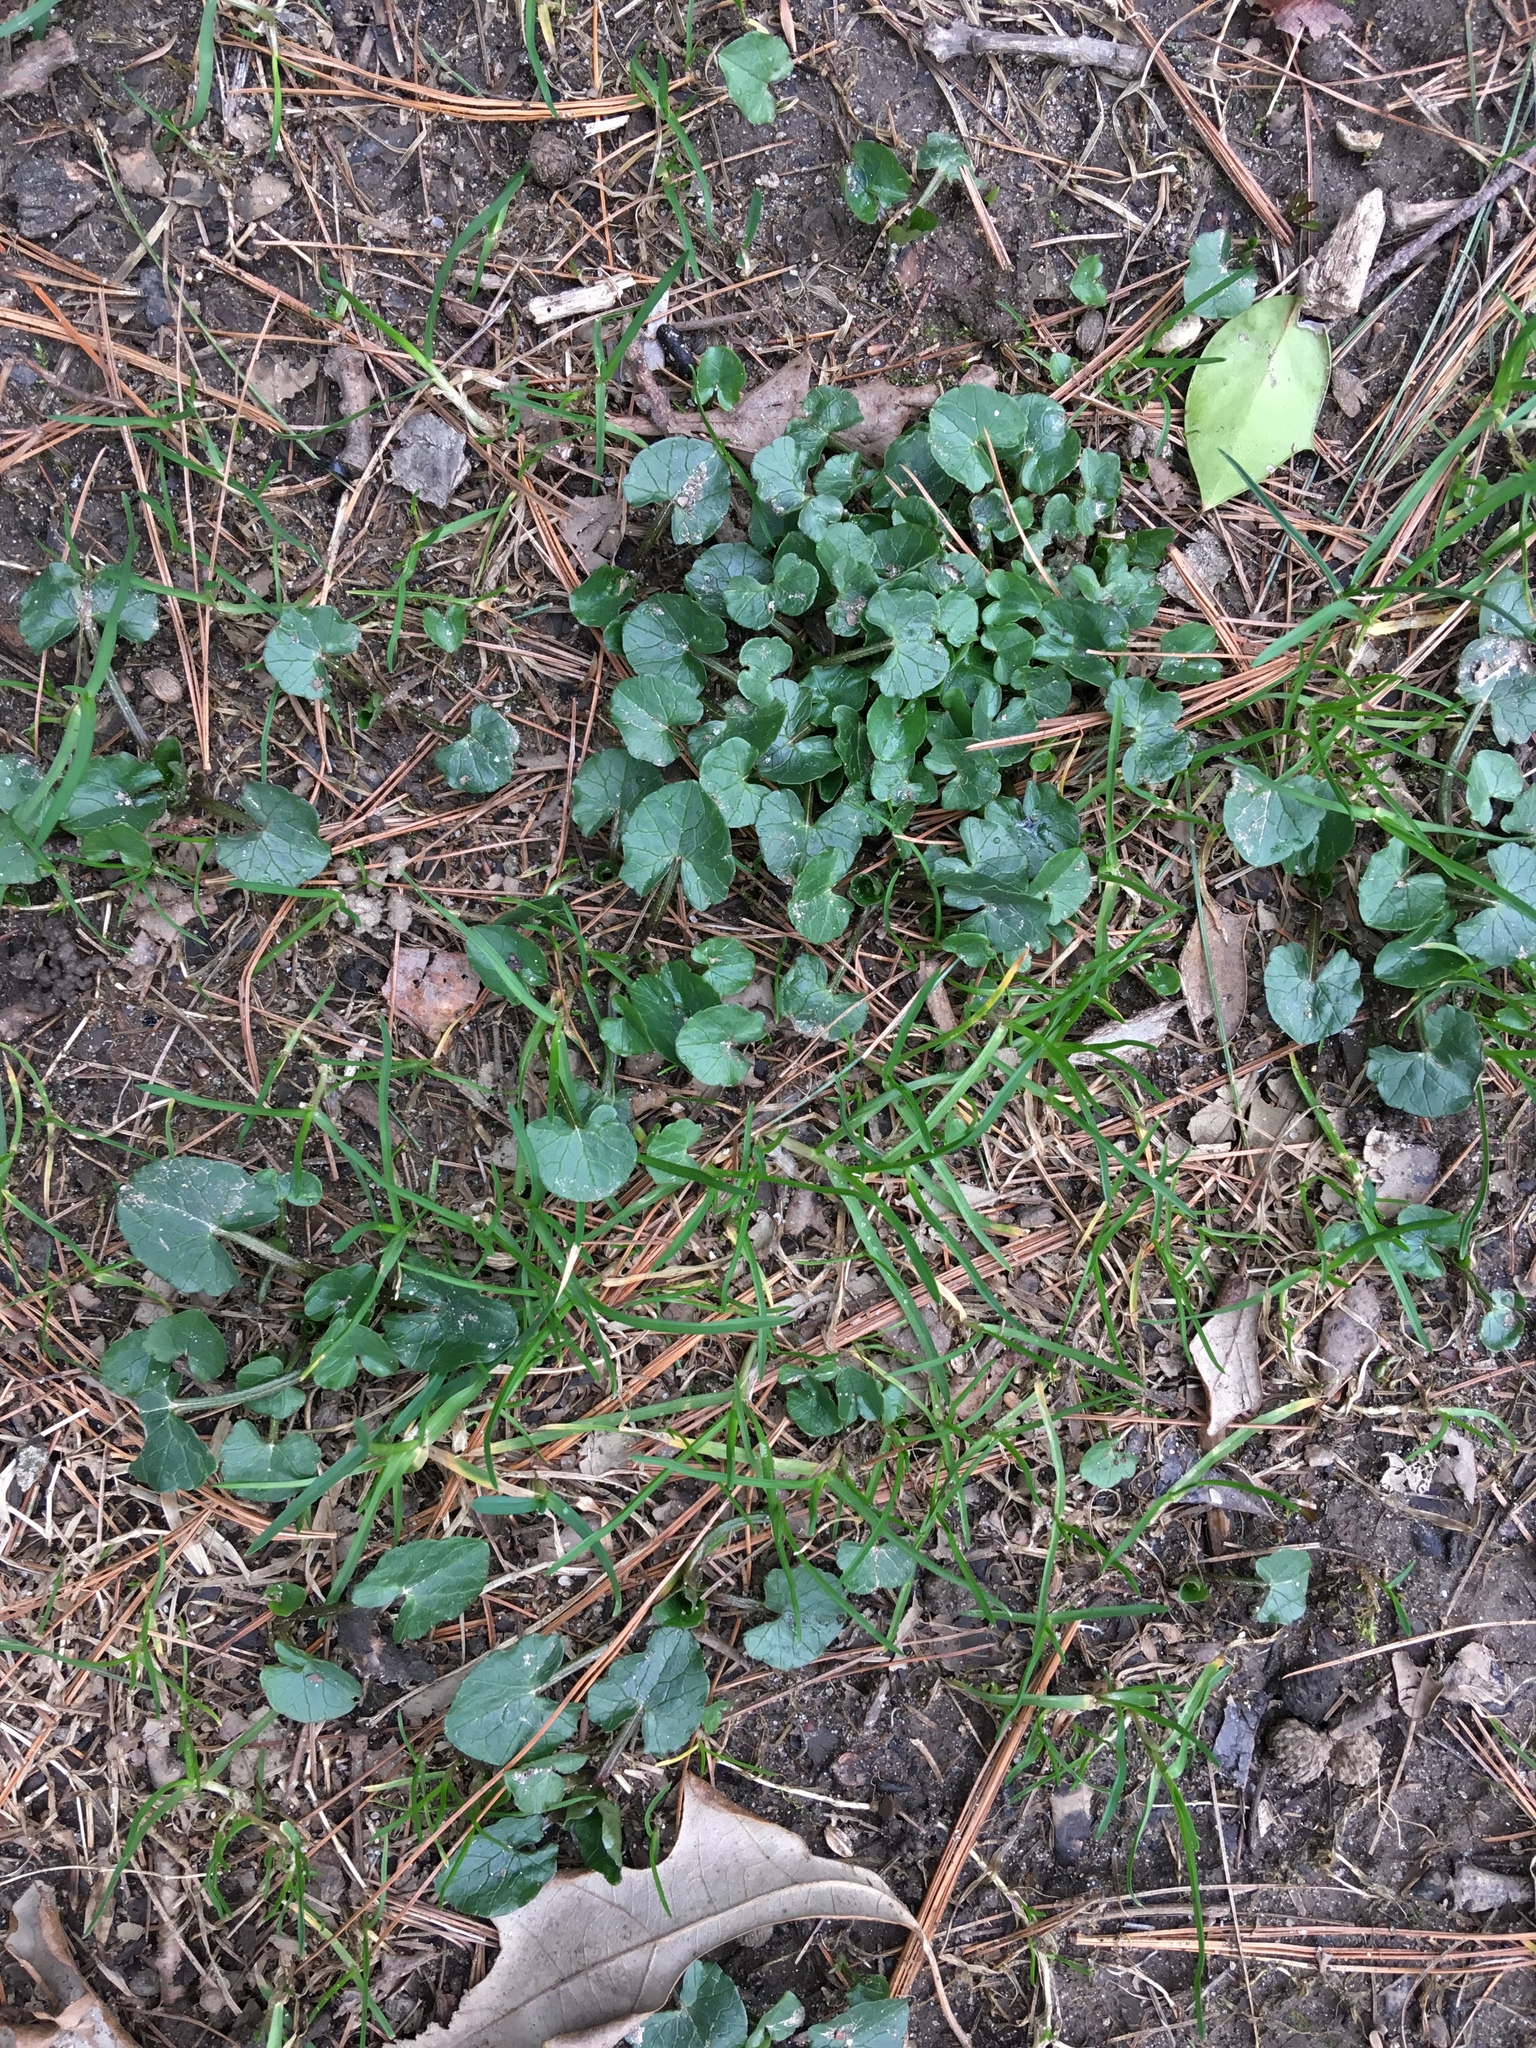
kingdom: Plantae
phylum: Tracheophyta
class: Magnoliopsida
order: Ranunculales
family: Ranunculaceae
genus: Ficaria
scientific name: Ficaria verna
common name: Lesser celandine
